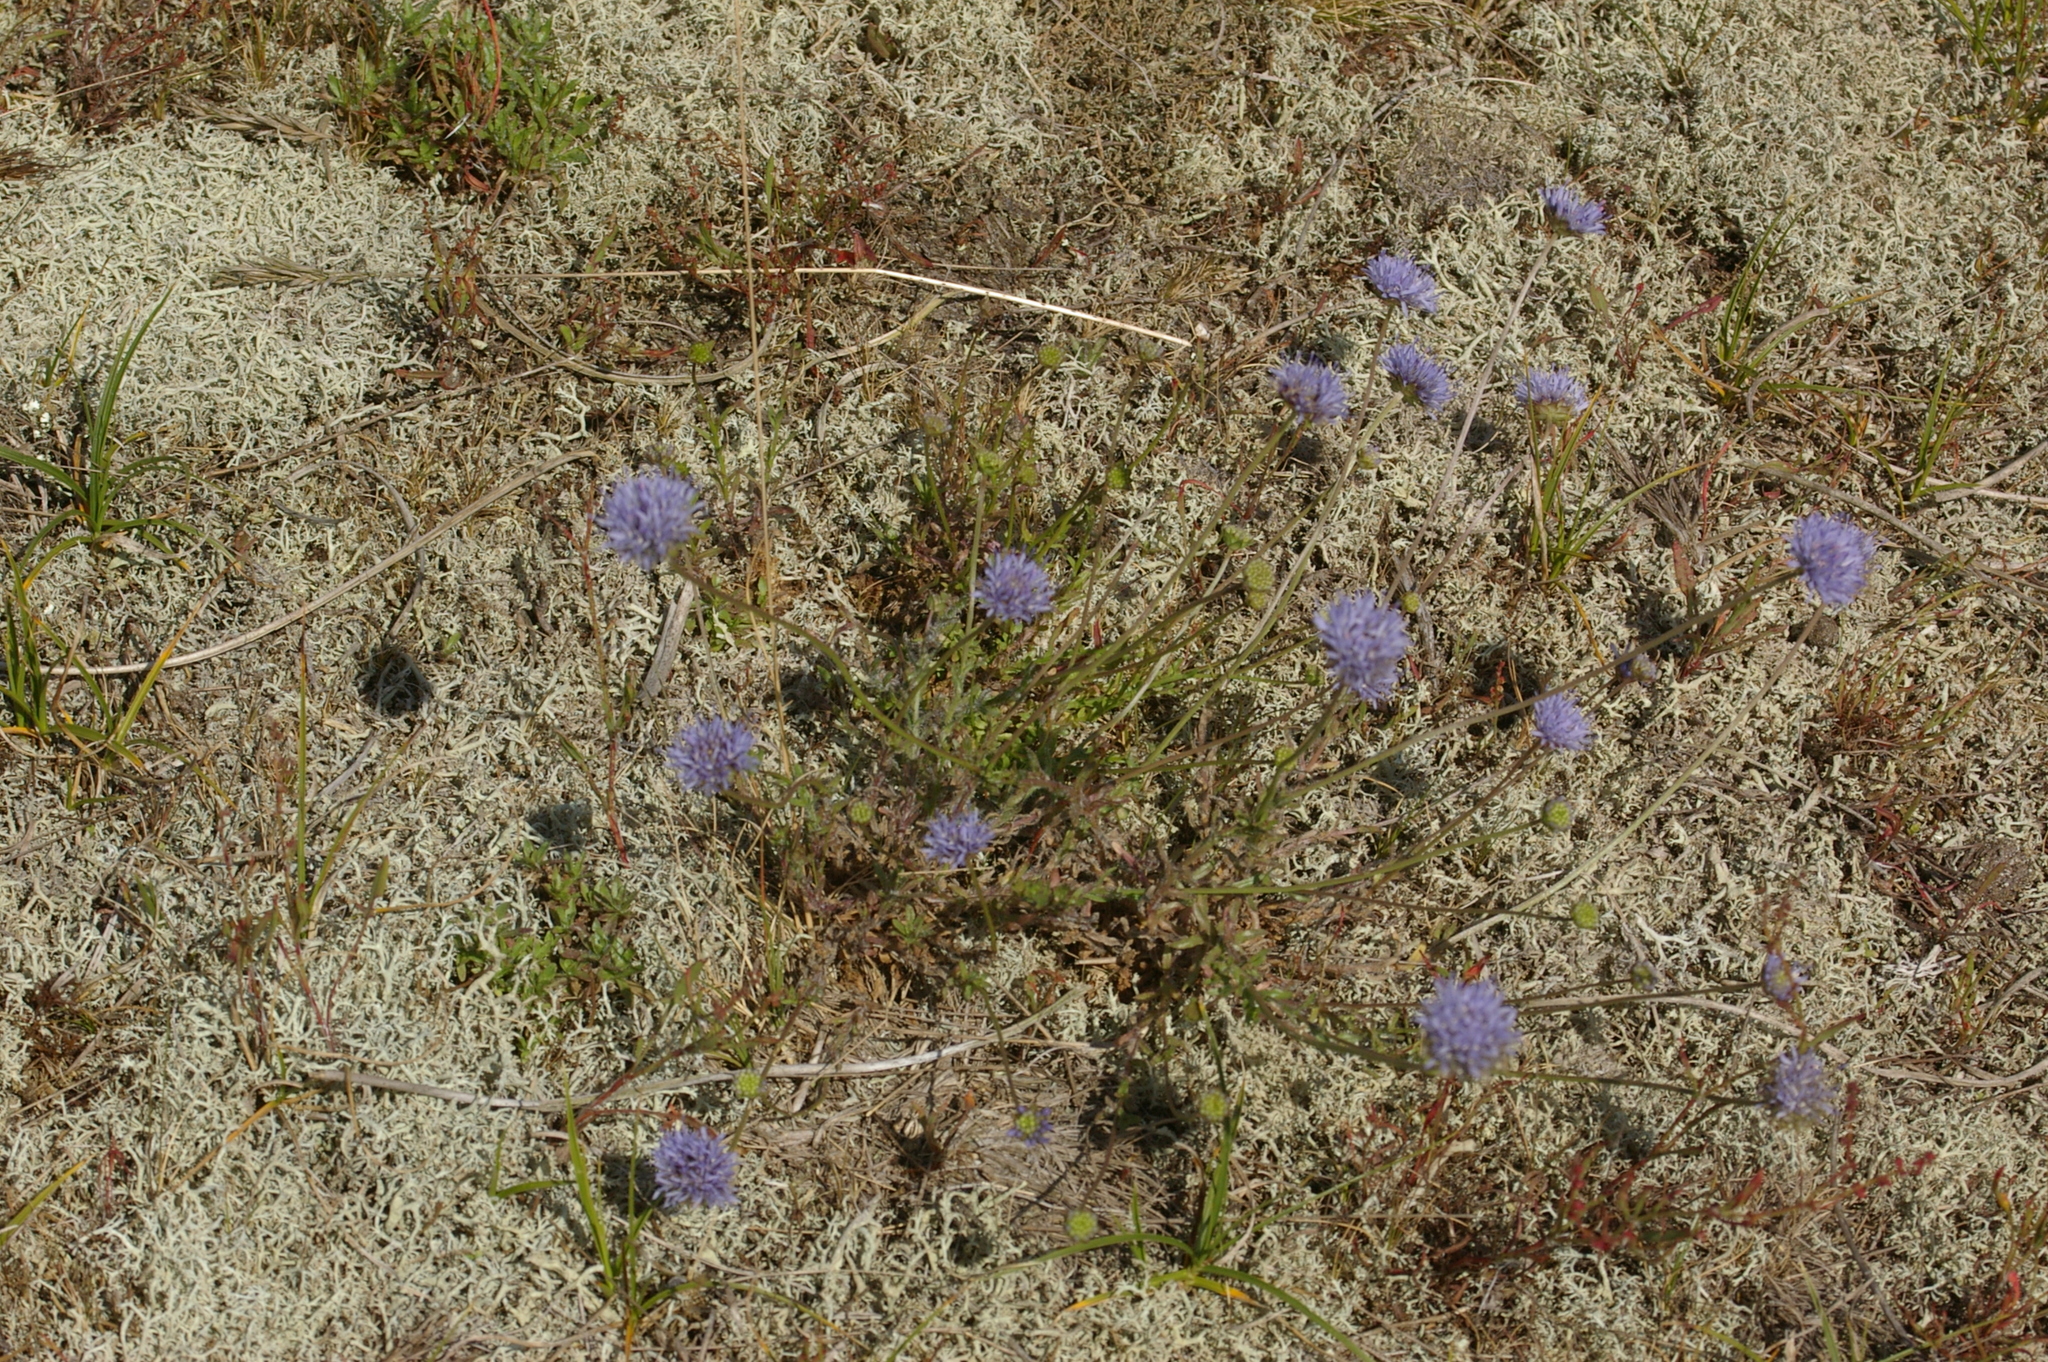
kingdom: Plantae
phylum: Tracheophyta
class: Magnoliopsida
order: Asterales
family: Campanulaceae
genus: Jasione
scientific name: Jasione montana
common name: Sheep's-bit
